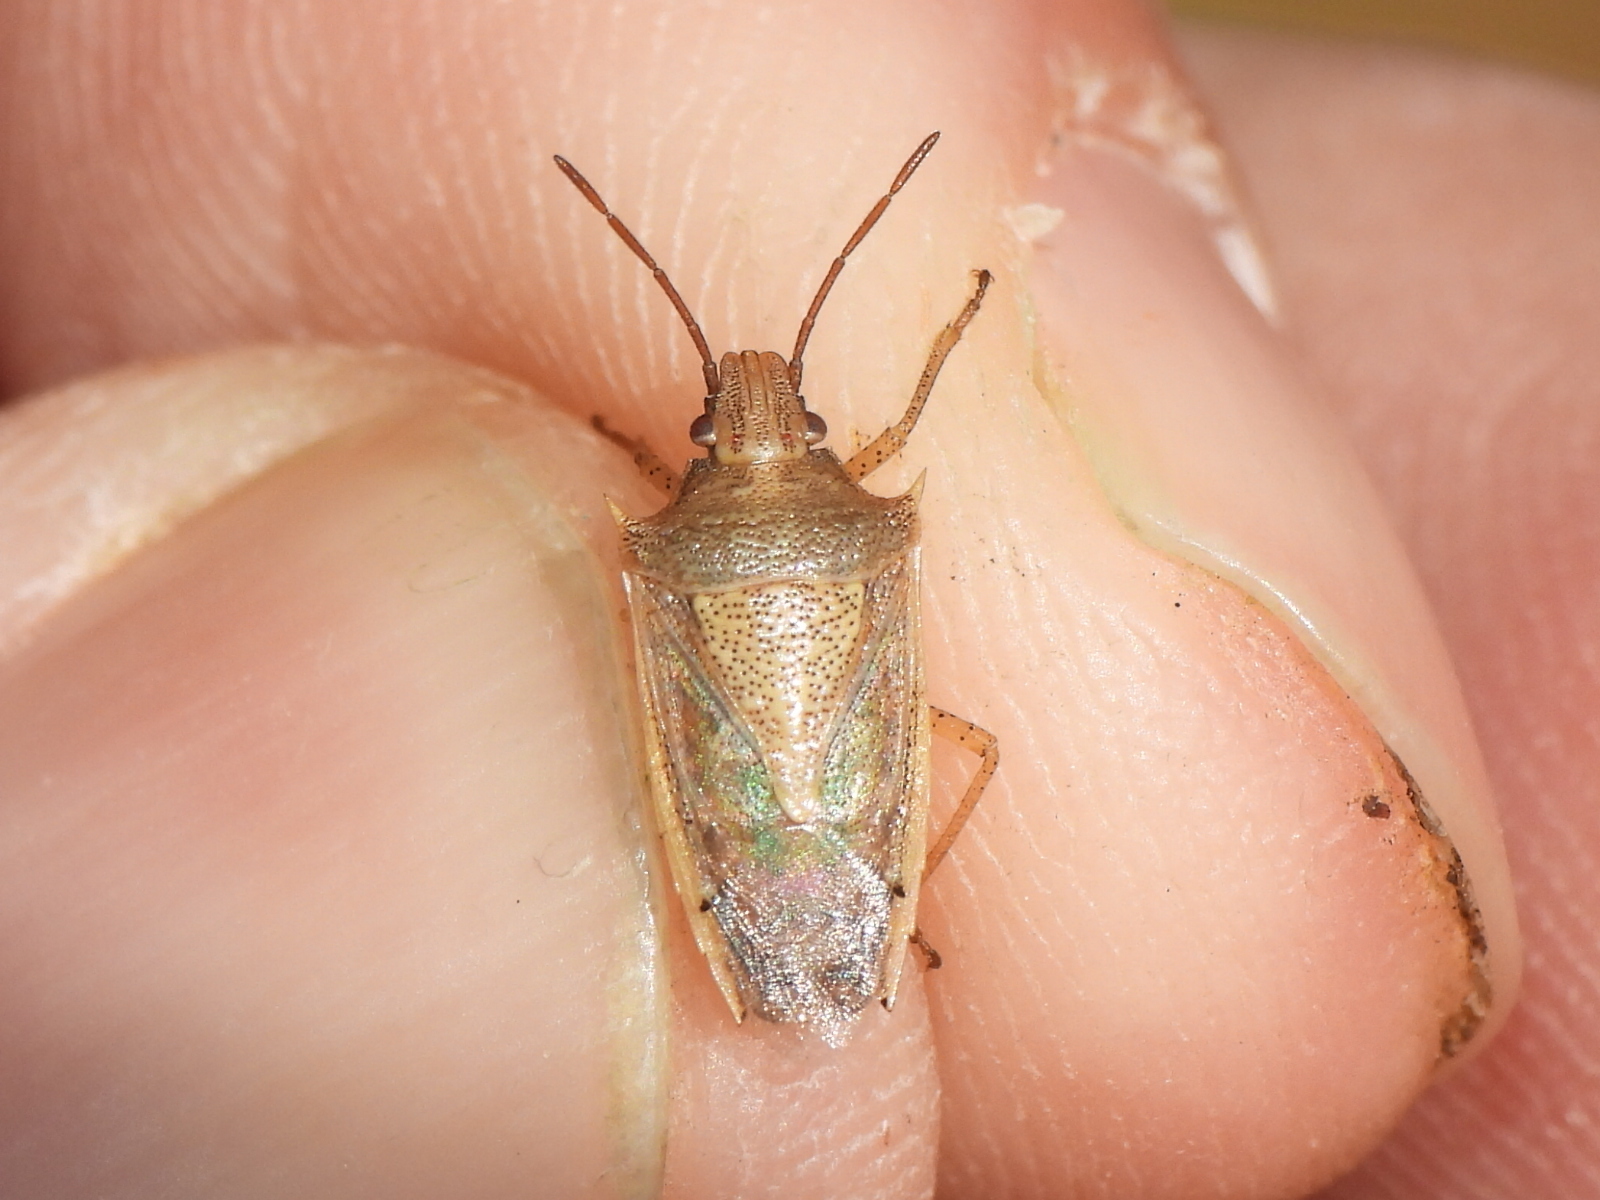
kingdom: Animalia
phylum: Arthropoda
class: Insecta
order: Hemiptera
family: Pentatomidae
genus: Oebalus
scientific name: Oebalus pugnax
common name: Rice stink bug
